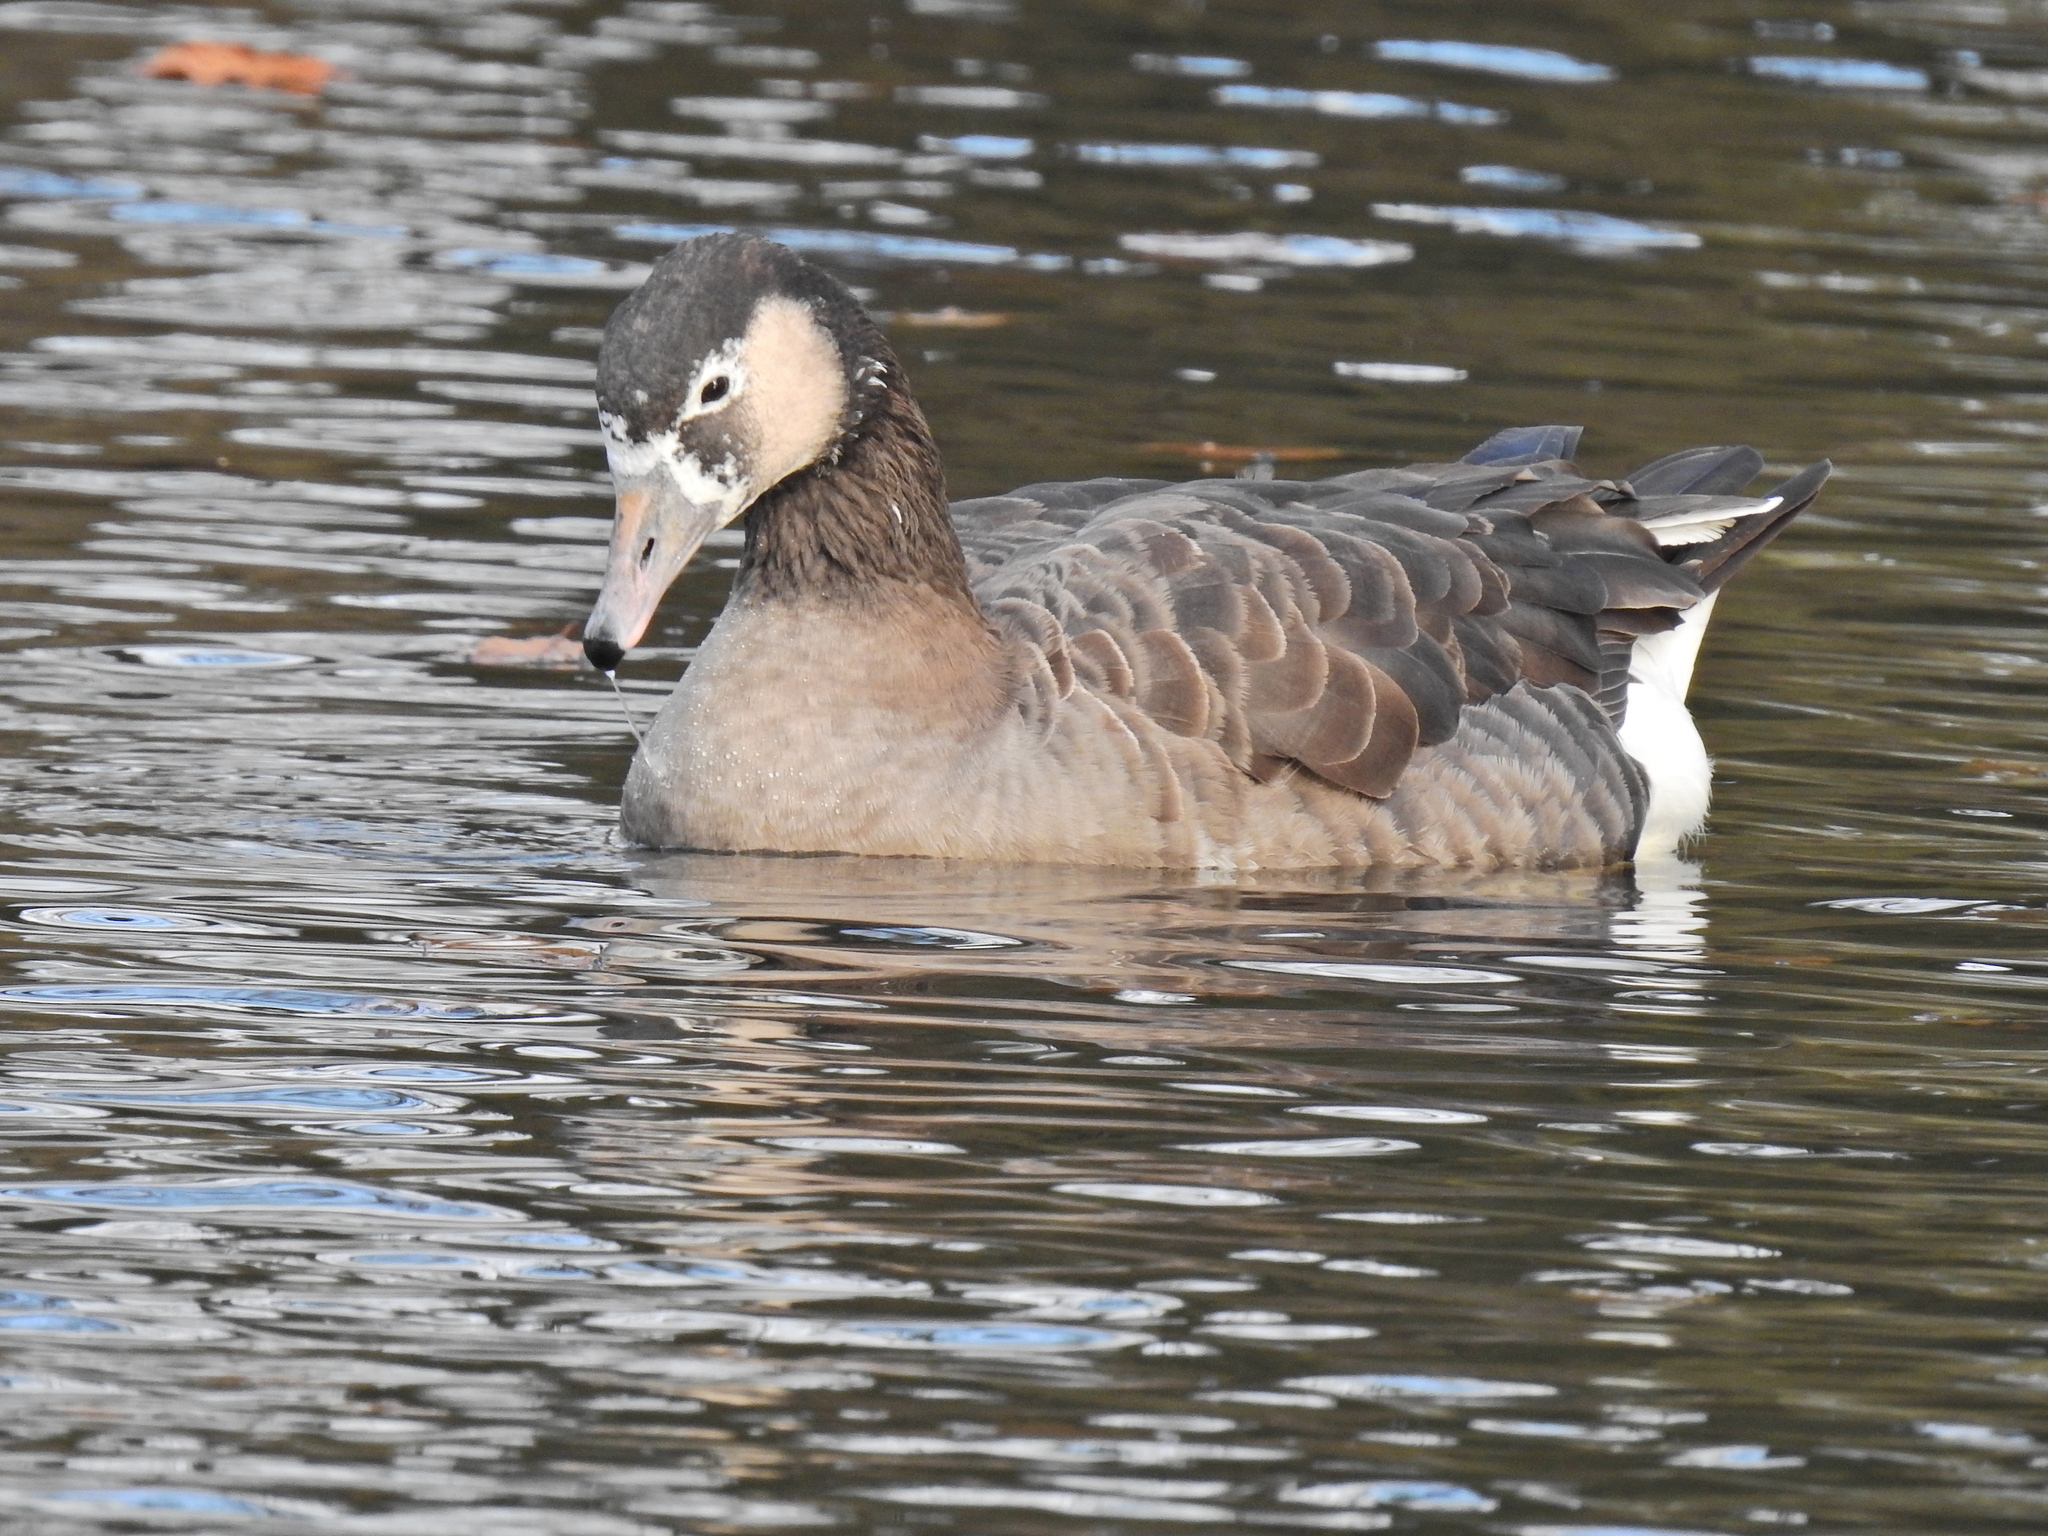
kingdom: Animalia
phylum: Chordata
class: Aves
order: Anseriformes
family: Anatidae
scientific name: Anatidae
